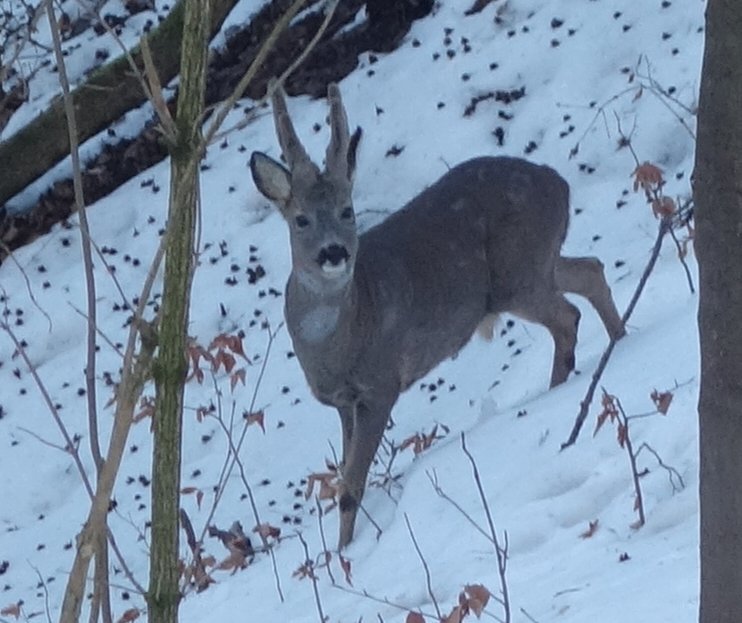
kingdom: Animalia
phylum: Chordata
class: Mammalia
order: Artiodactyla
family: Cervidae
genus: Capreolus
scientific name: Capreolus capreolus
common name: Western roe deer
